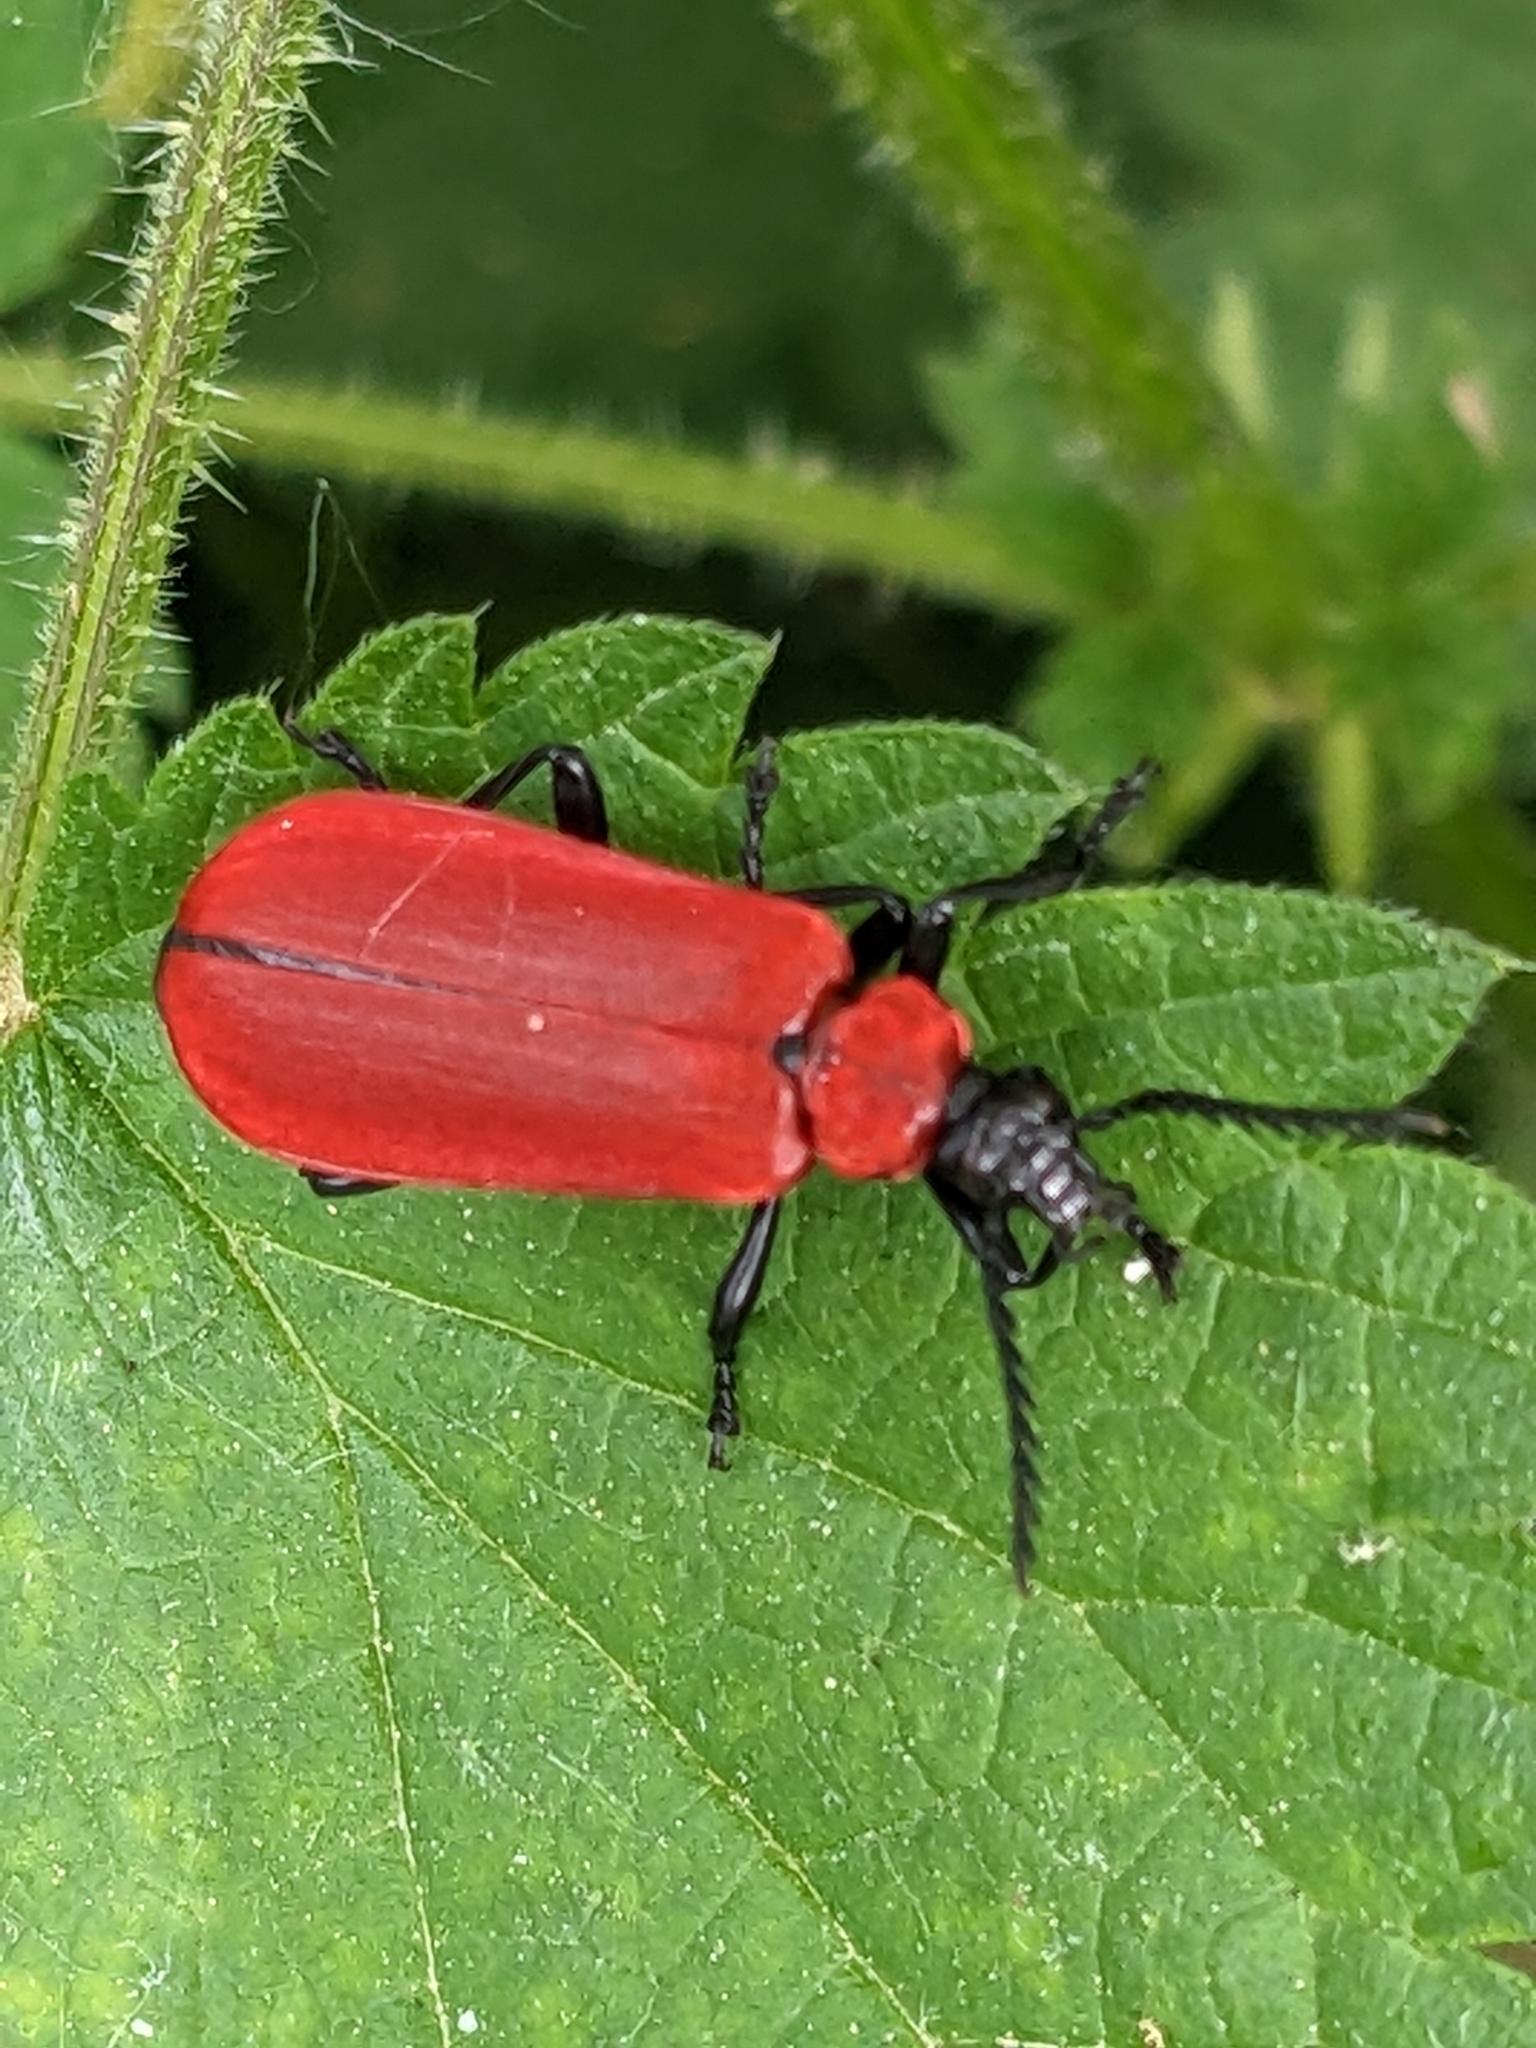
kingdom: Animalia
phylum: Arthropoda
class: Insecta
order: Coleoptera
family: Pyrochroidae
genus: Pyrochroa
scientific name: Pyrochroa coccinea
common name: Black-headed cardinal beetle
